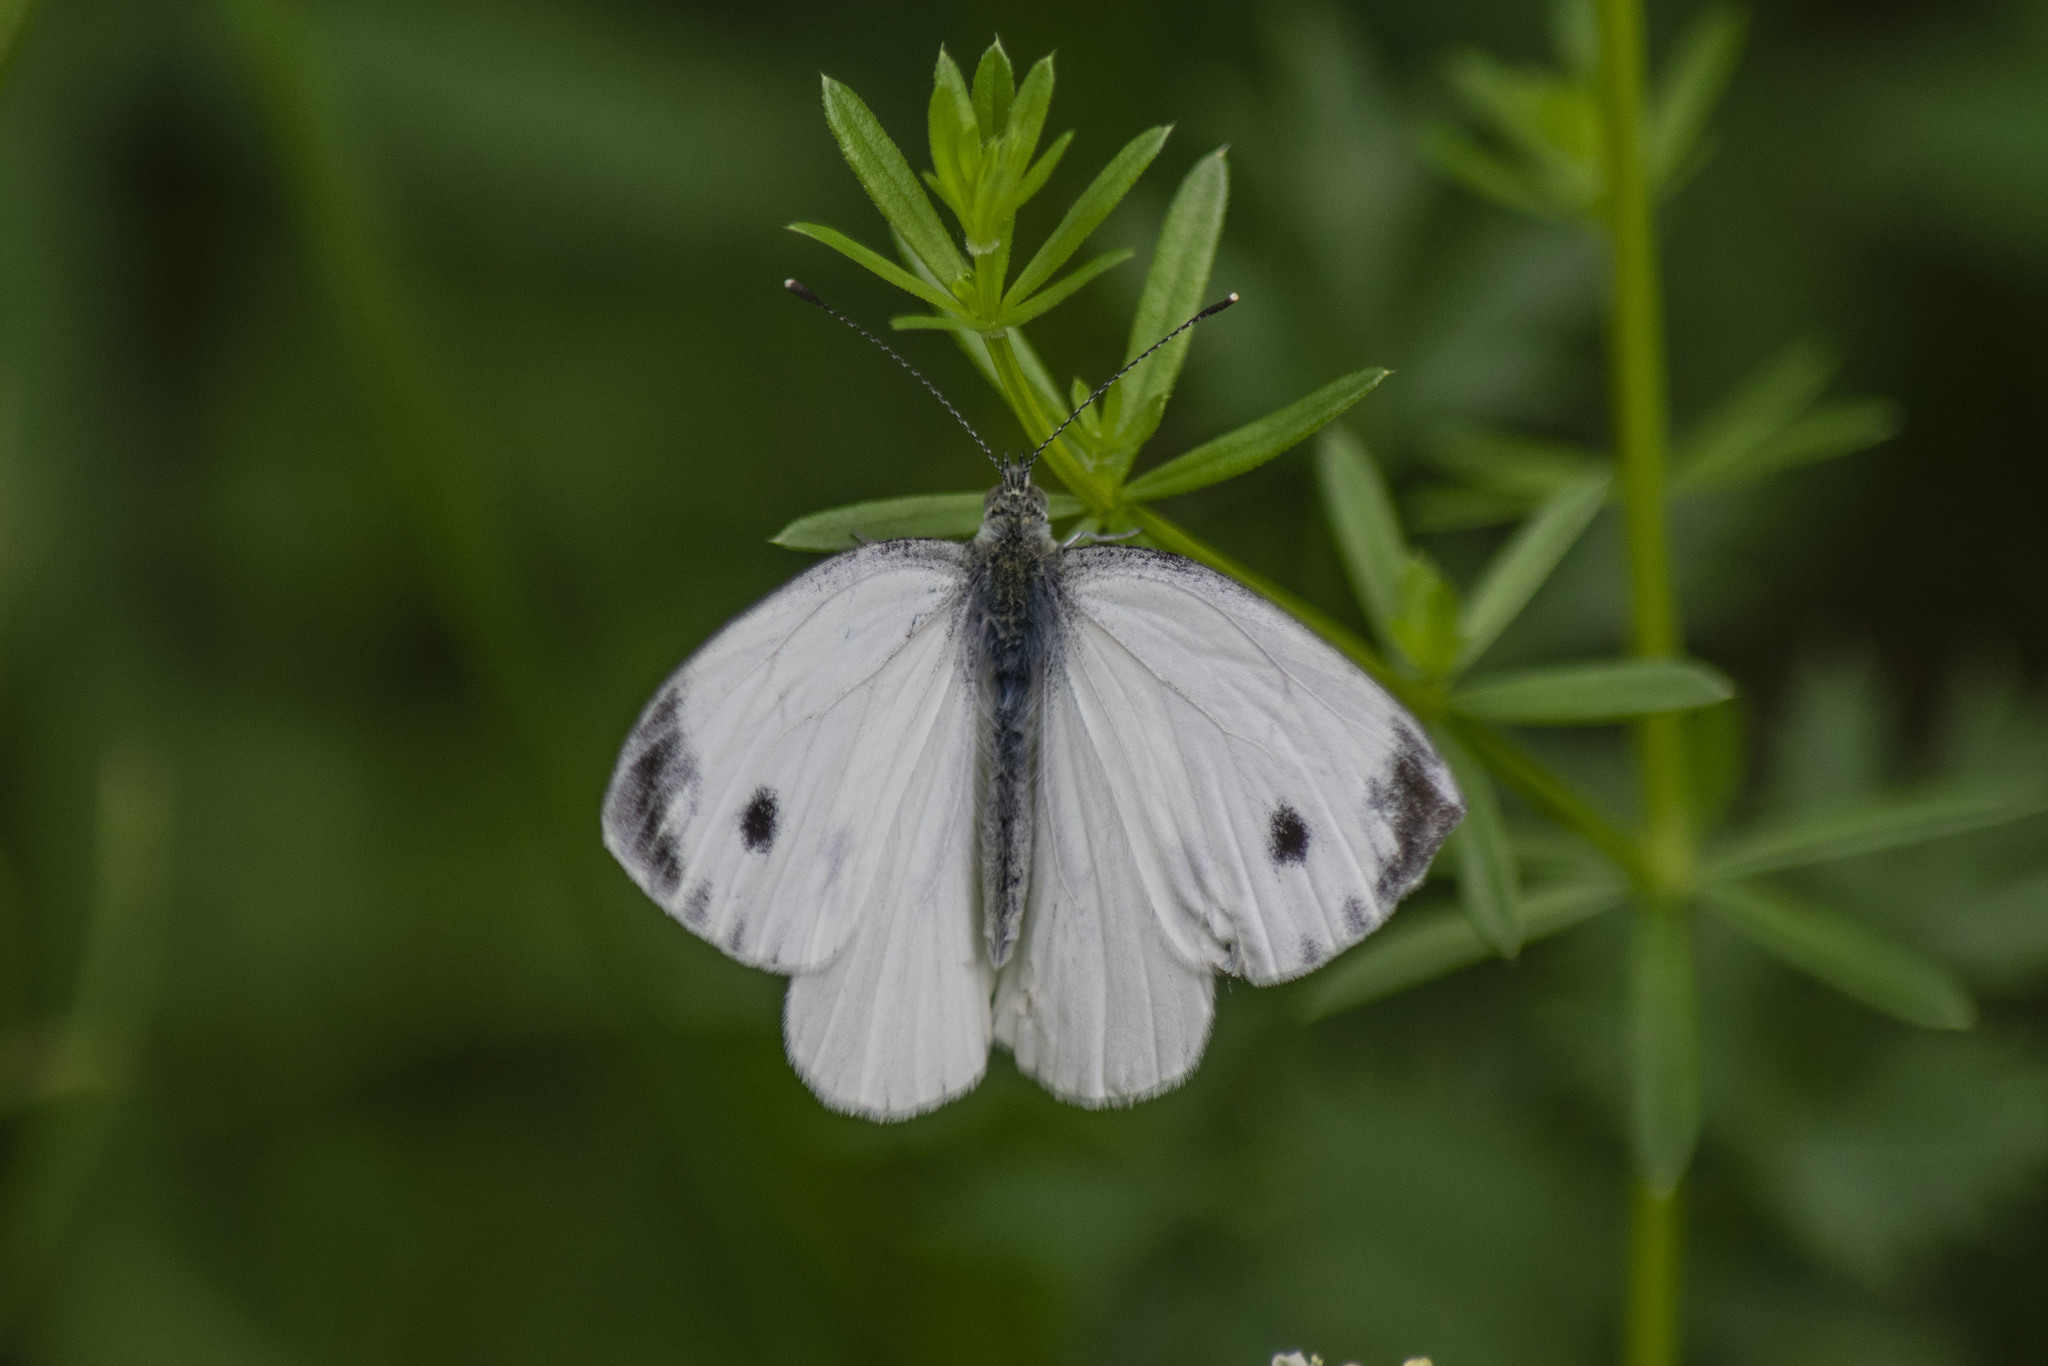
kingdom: Animalia
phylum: Arthropoda
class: Insecta
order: Lepidoptera
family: Pieridae
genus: Pieris
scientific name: Pieris napi
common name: Green-veined white
